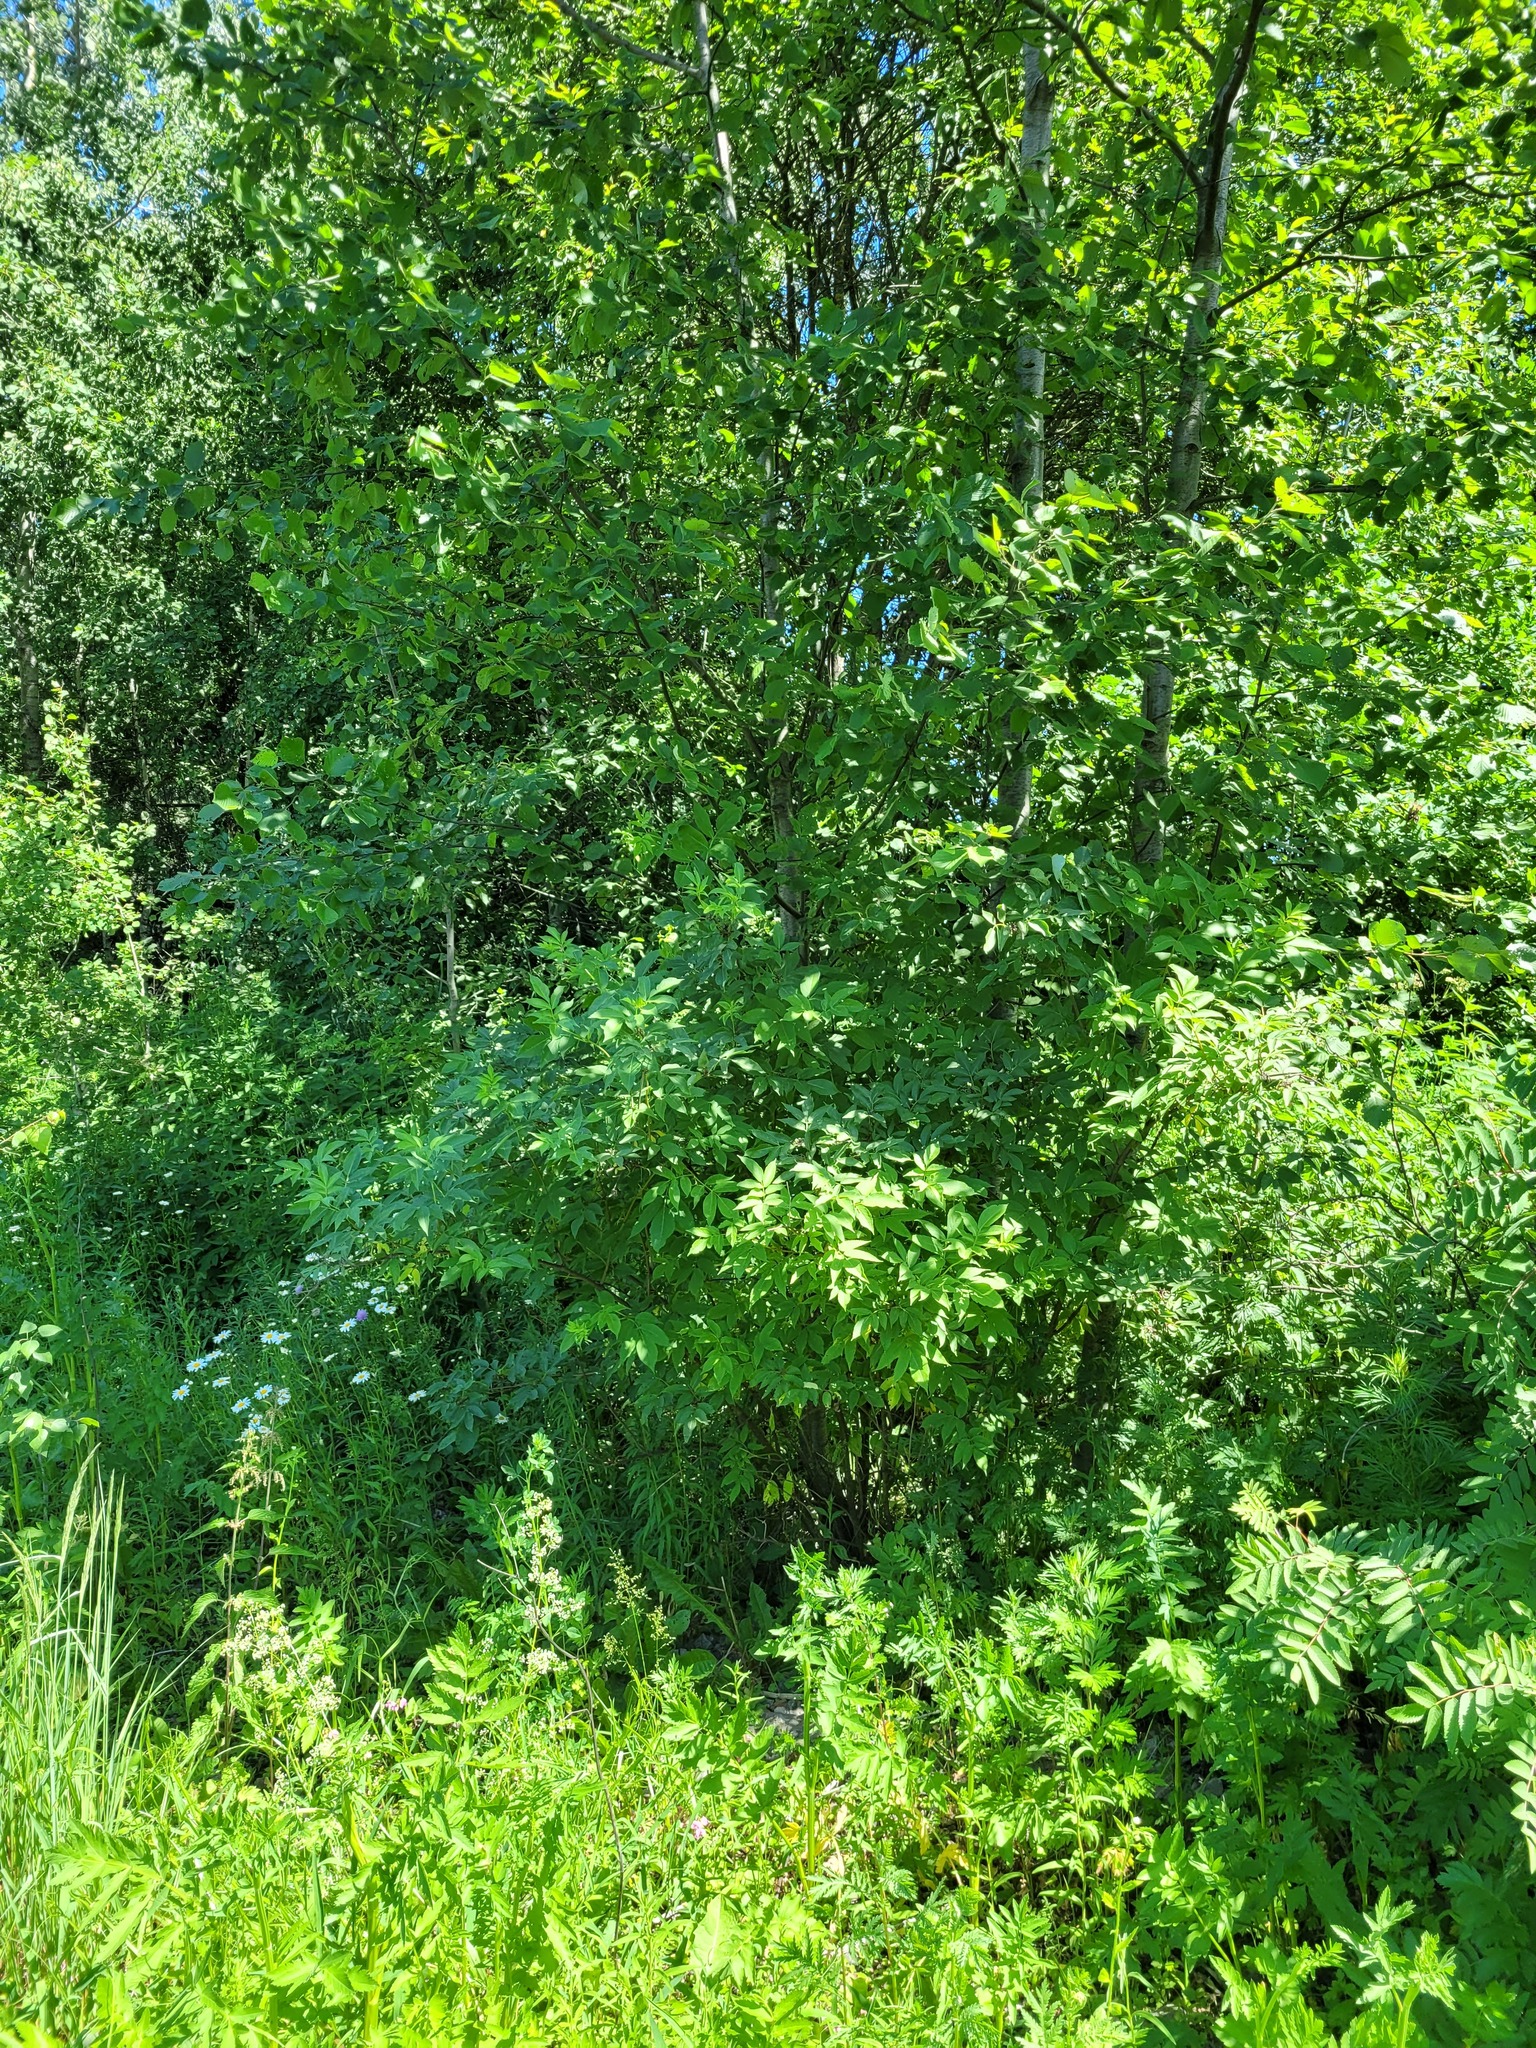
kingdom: Plantae
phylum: Tracheophyta
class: Magnoliopsida
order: Dipsacales
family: Viburnaceae
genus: Sambucus
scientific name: Sambucus racemosa
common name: Red-berried elder
